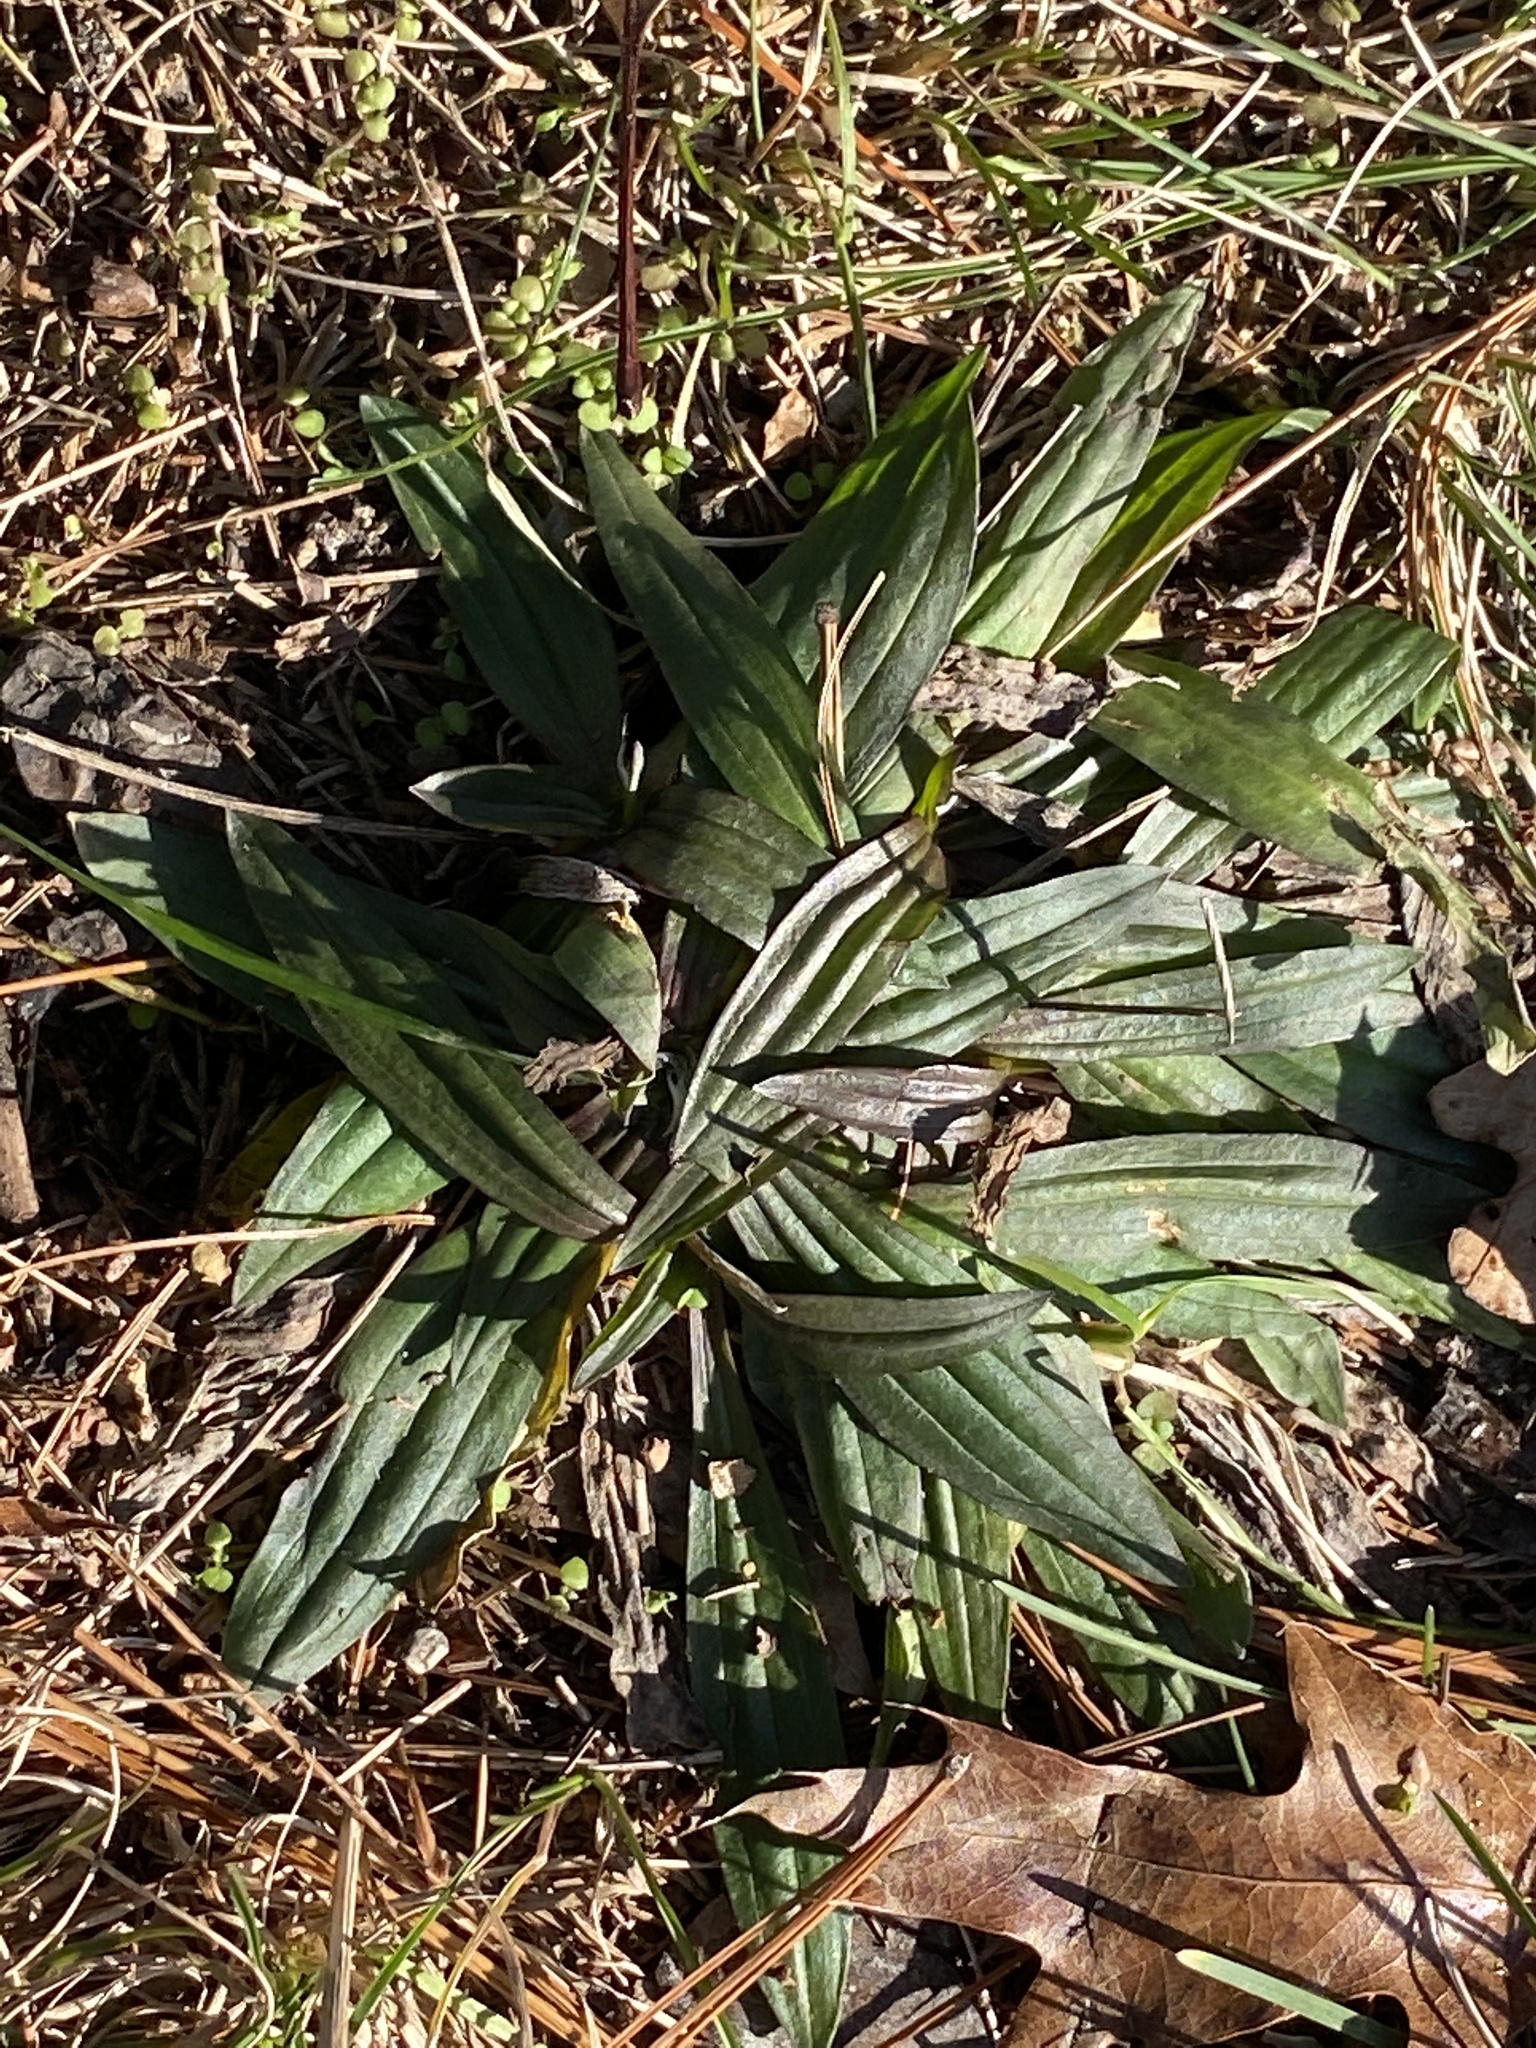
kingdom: Plantae
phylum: Tracheophyta
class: Magnoliopsida
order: Lamiales
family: Plantaginaceae
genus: Plantago
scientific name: Plantago lanceolata
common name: Ribwort plantain
